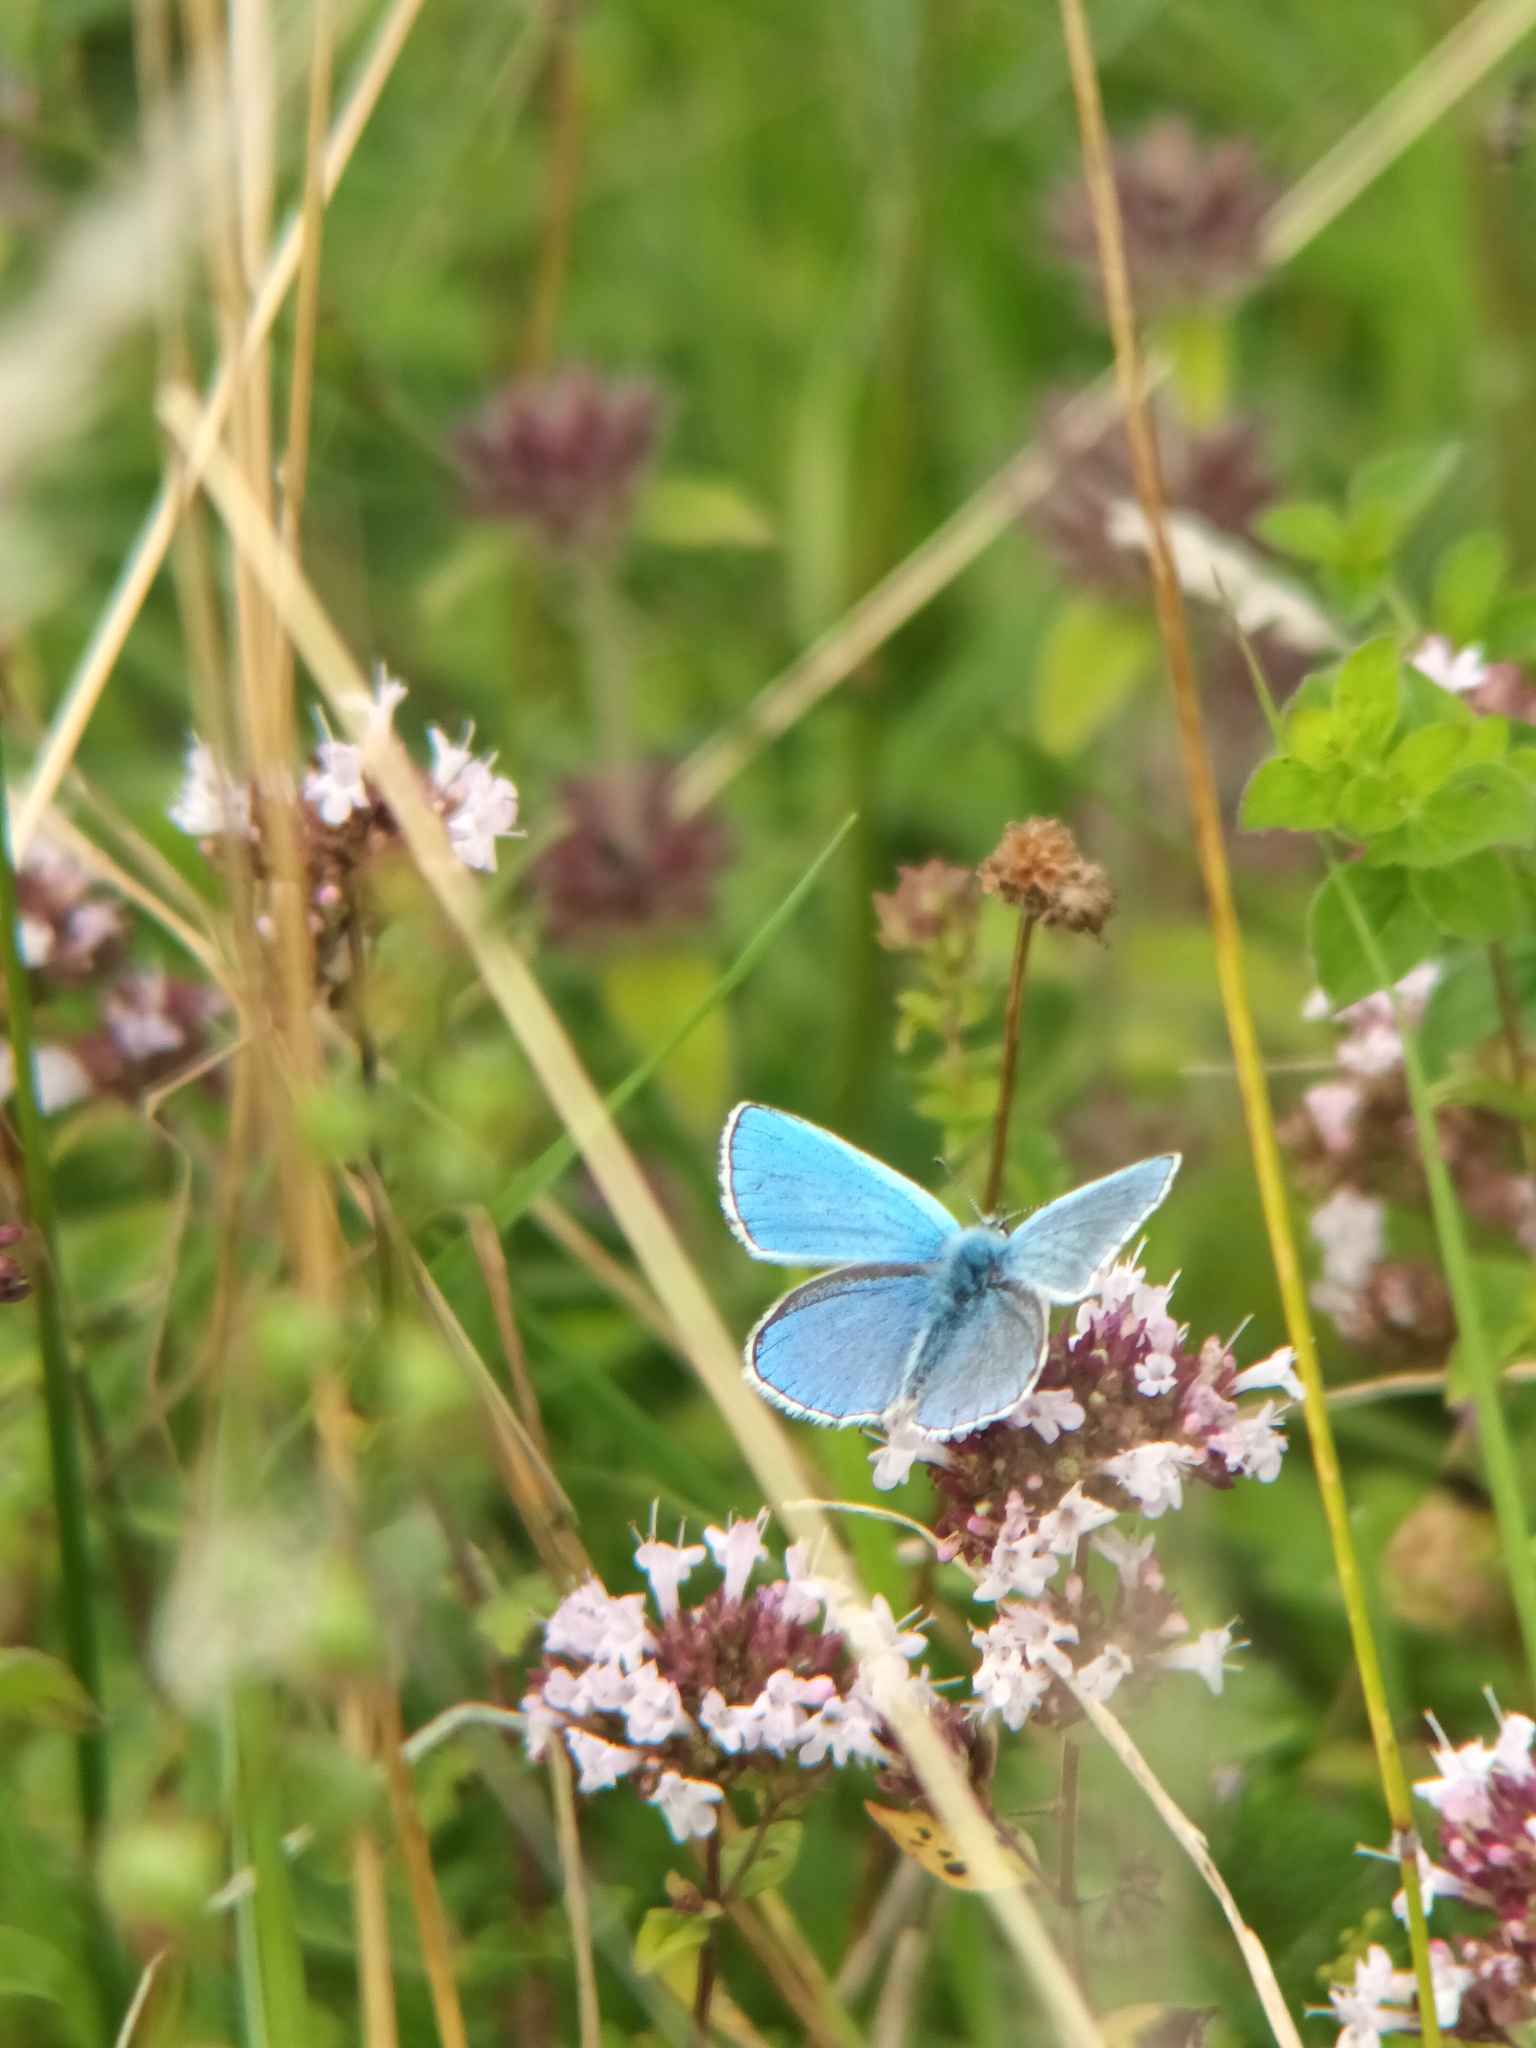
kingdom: Animalia
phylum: Arthropoda
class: Insecta
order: Lepidoptera
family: Lycaenidae
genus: Lysandra
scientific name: Lysandra bellargus
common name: Adonis blue
